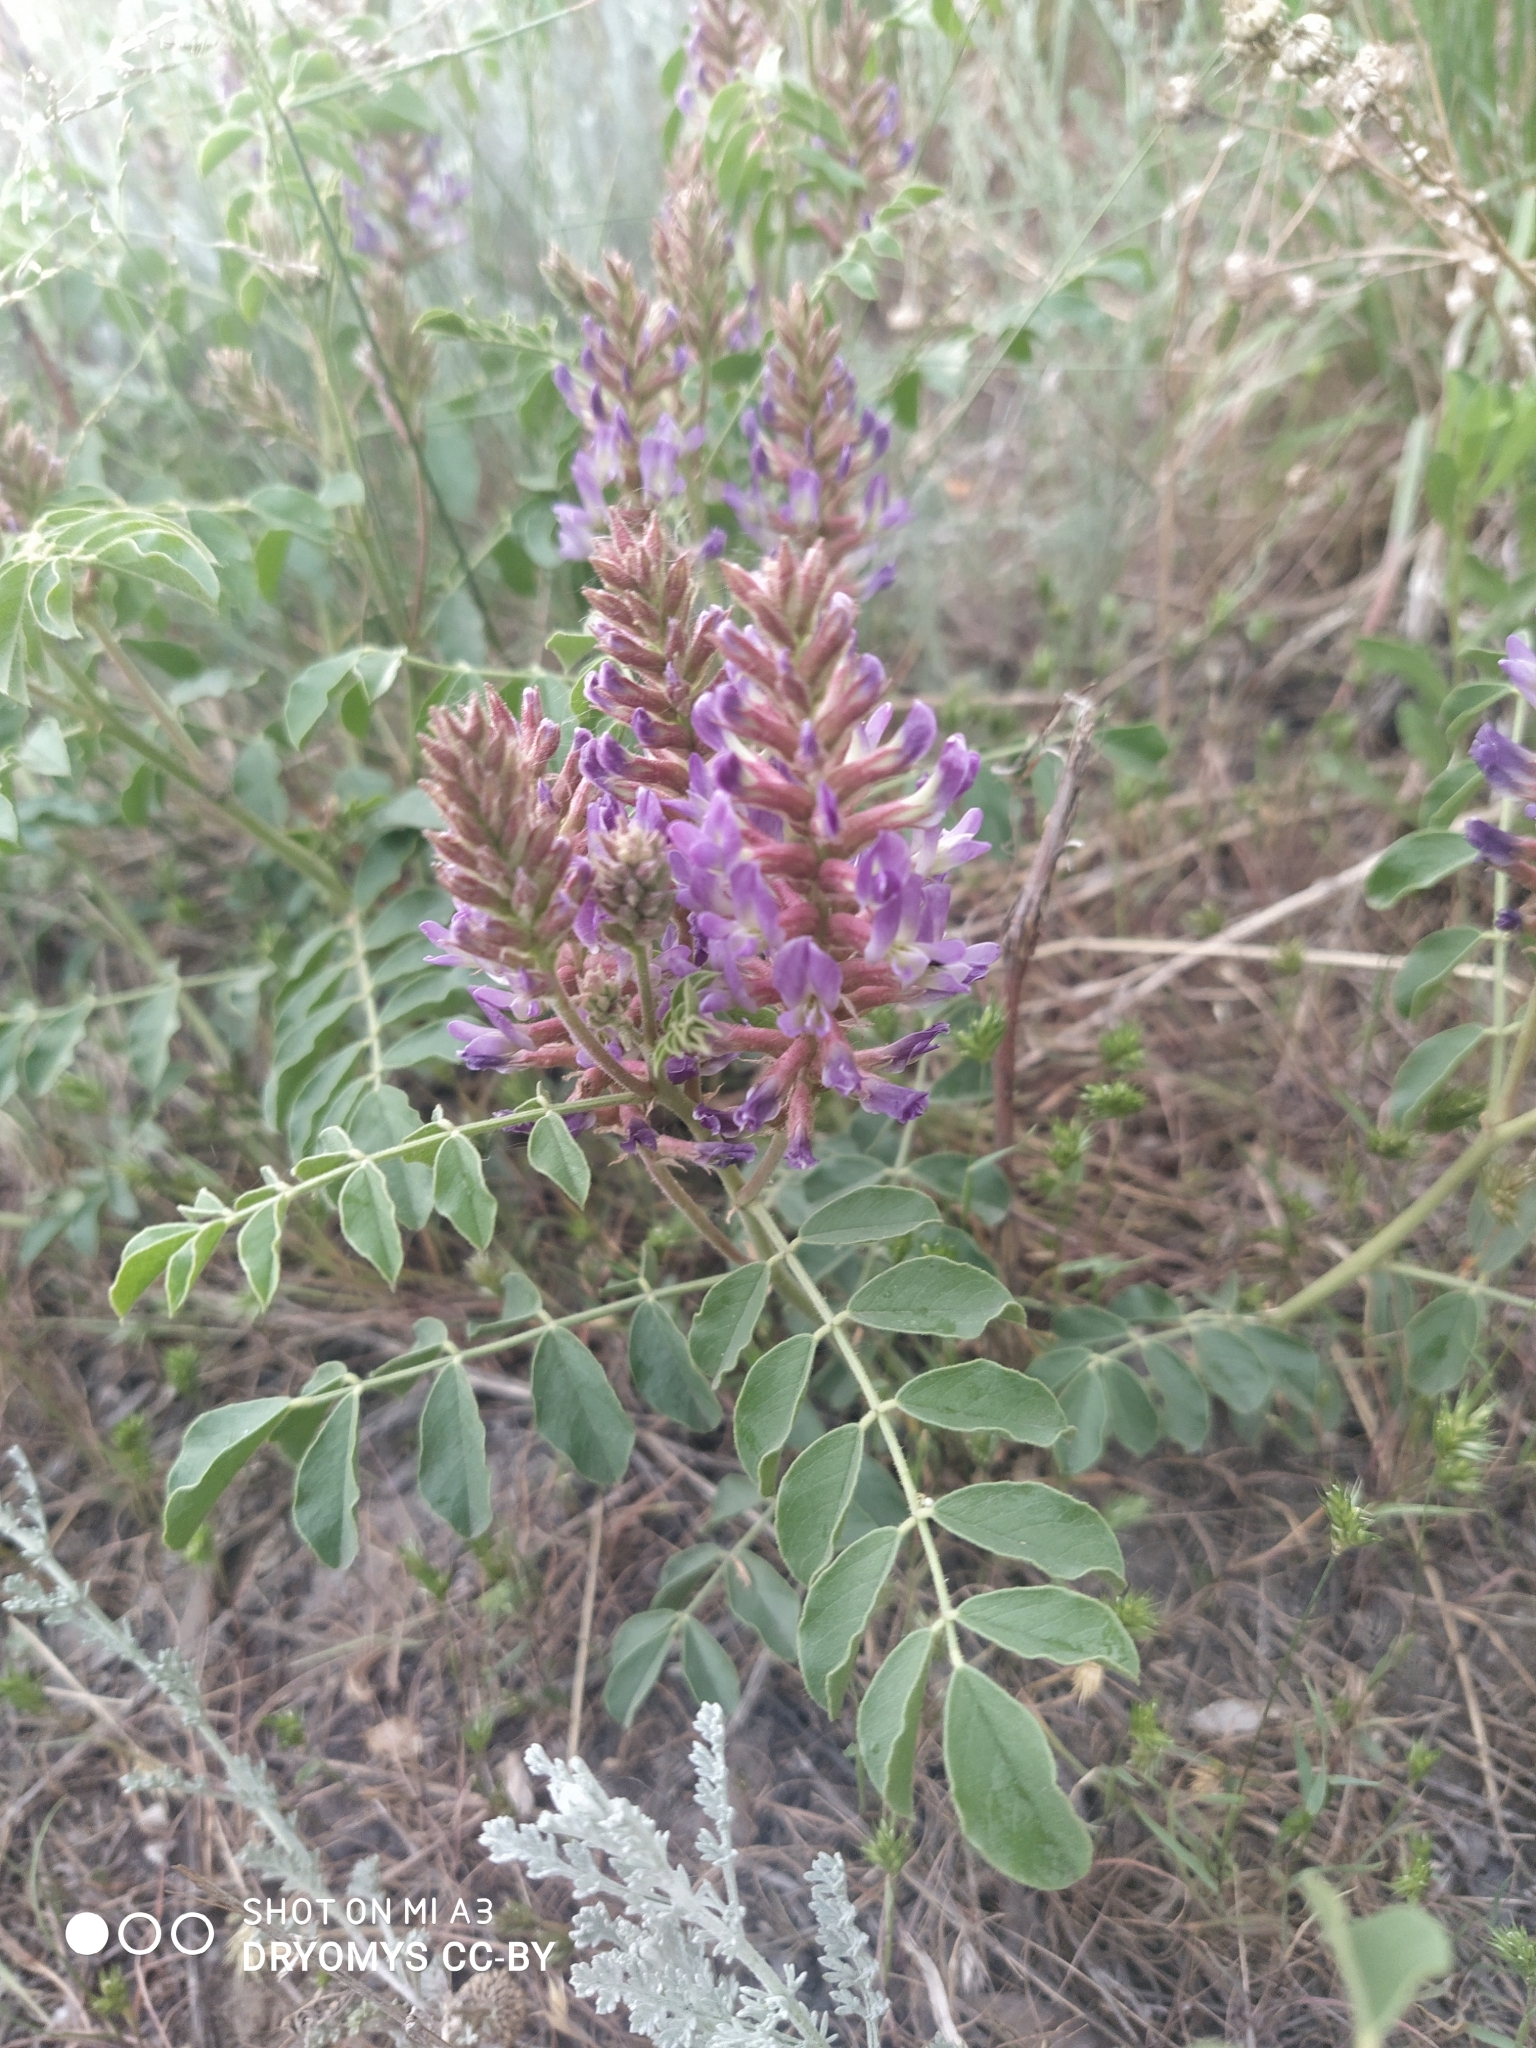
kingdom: Plantae
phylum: Tracheophyta
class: Magnoliopsida
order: Fabales
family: Fabaceae
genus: Glycyrrhiza
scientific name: Glycyrrhiza uralensis
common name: Chinese licorice
